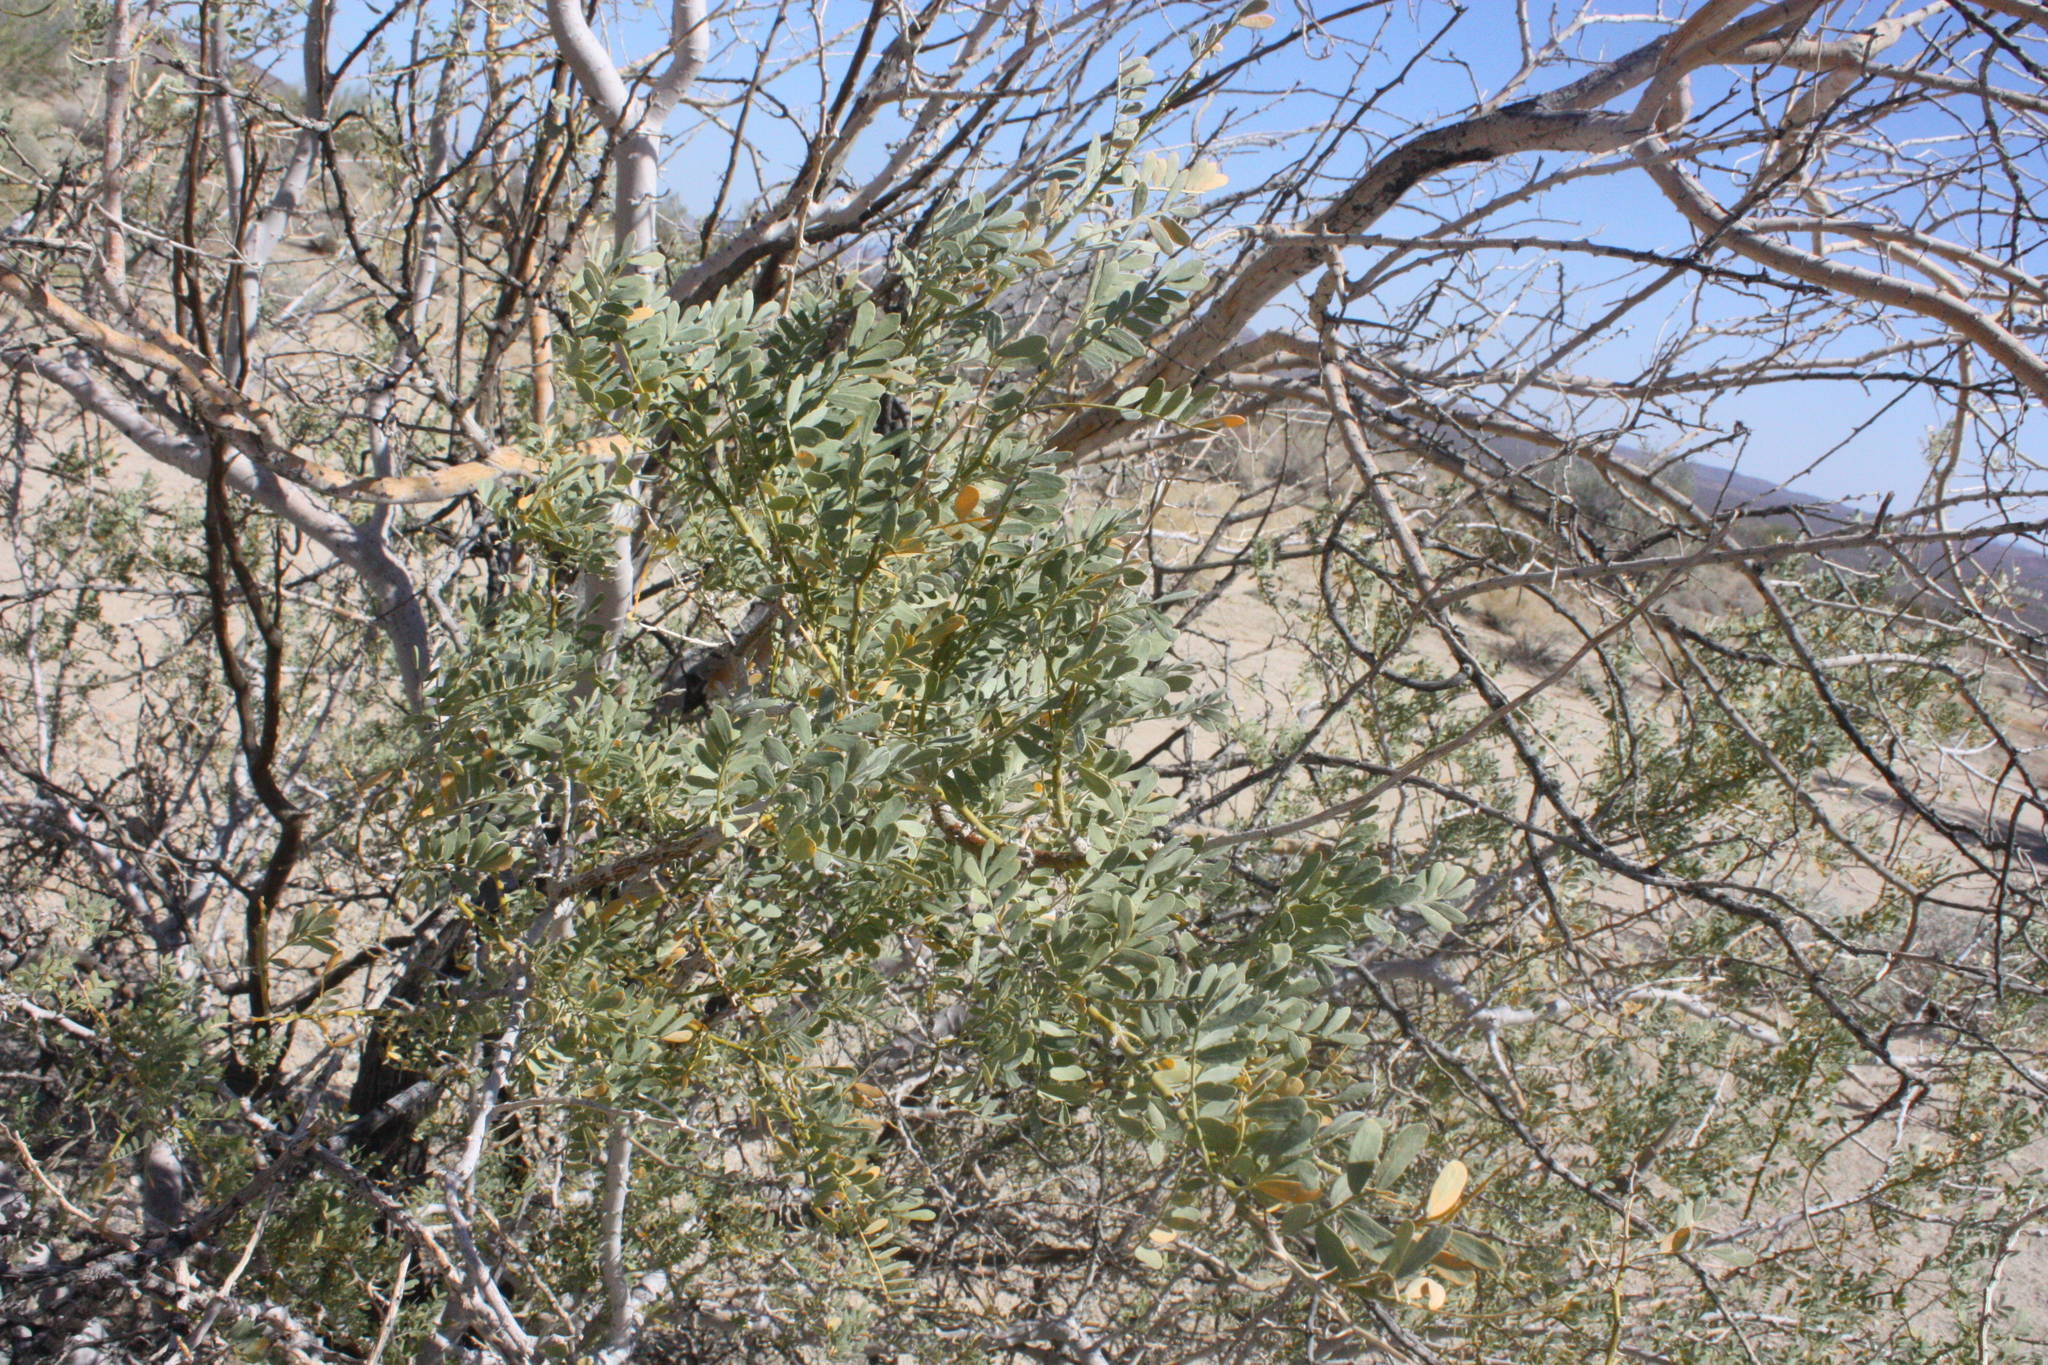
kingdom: Plantae
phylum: Tracheophyta
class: Magnoliopsida
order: Fabales
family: Fabaceae
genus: Olneya
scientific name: Olneya tesota
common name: Desert ironwood
